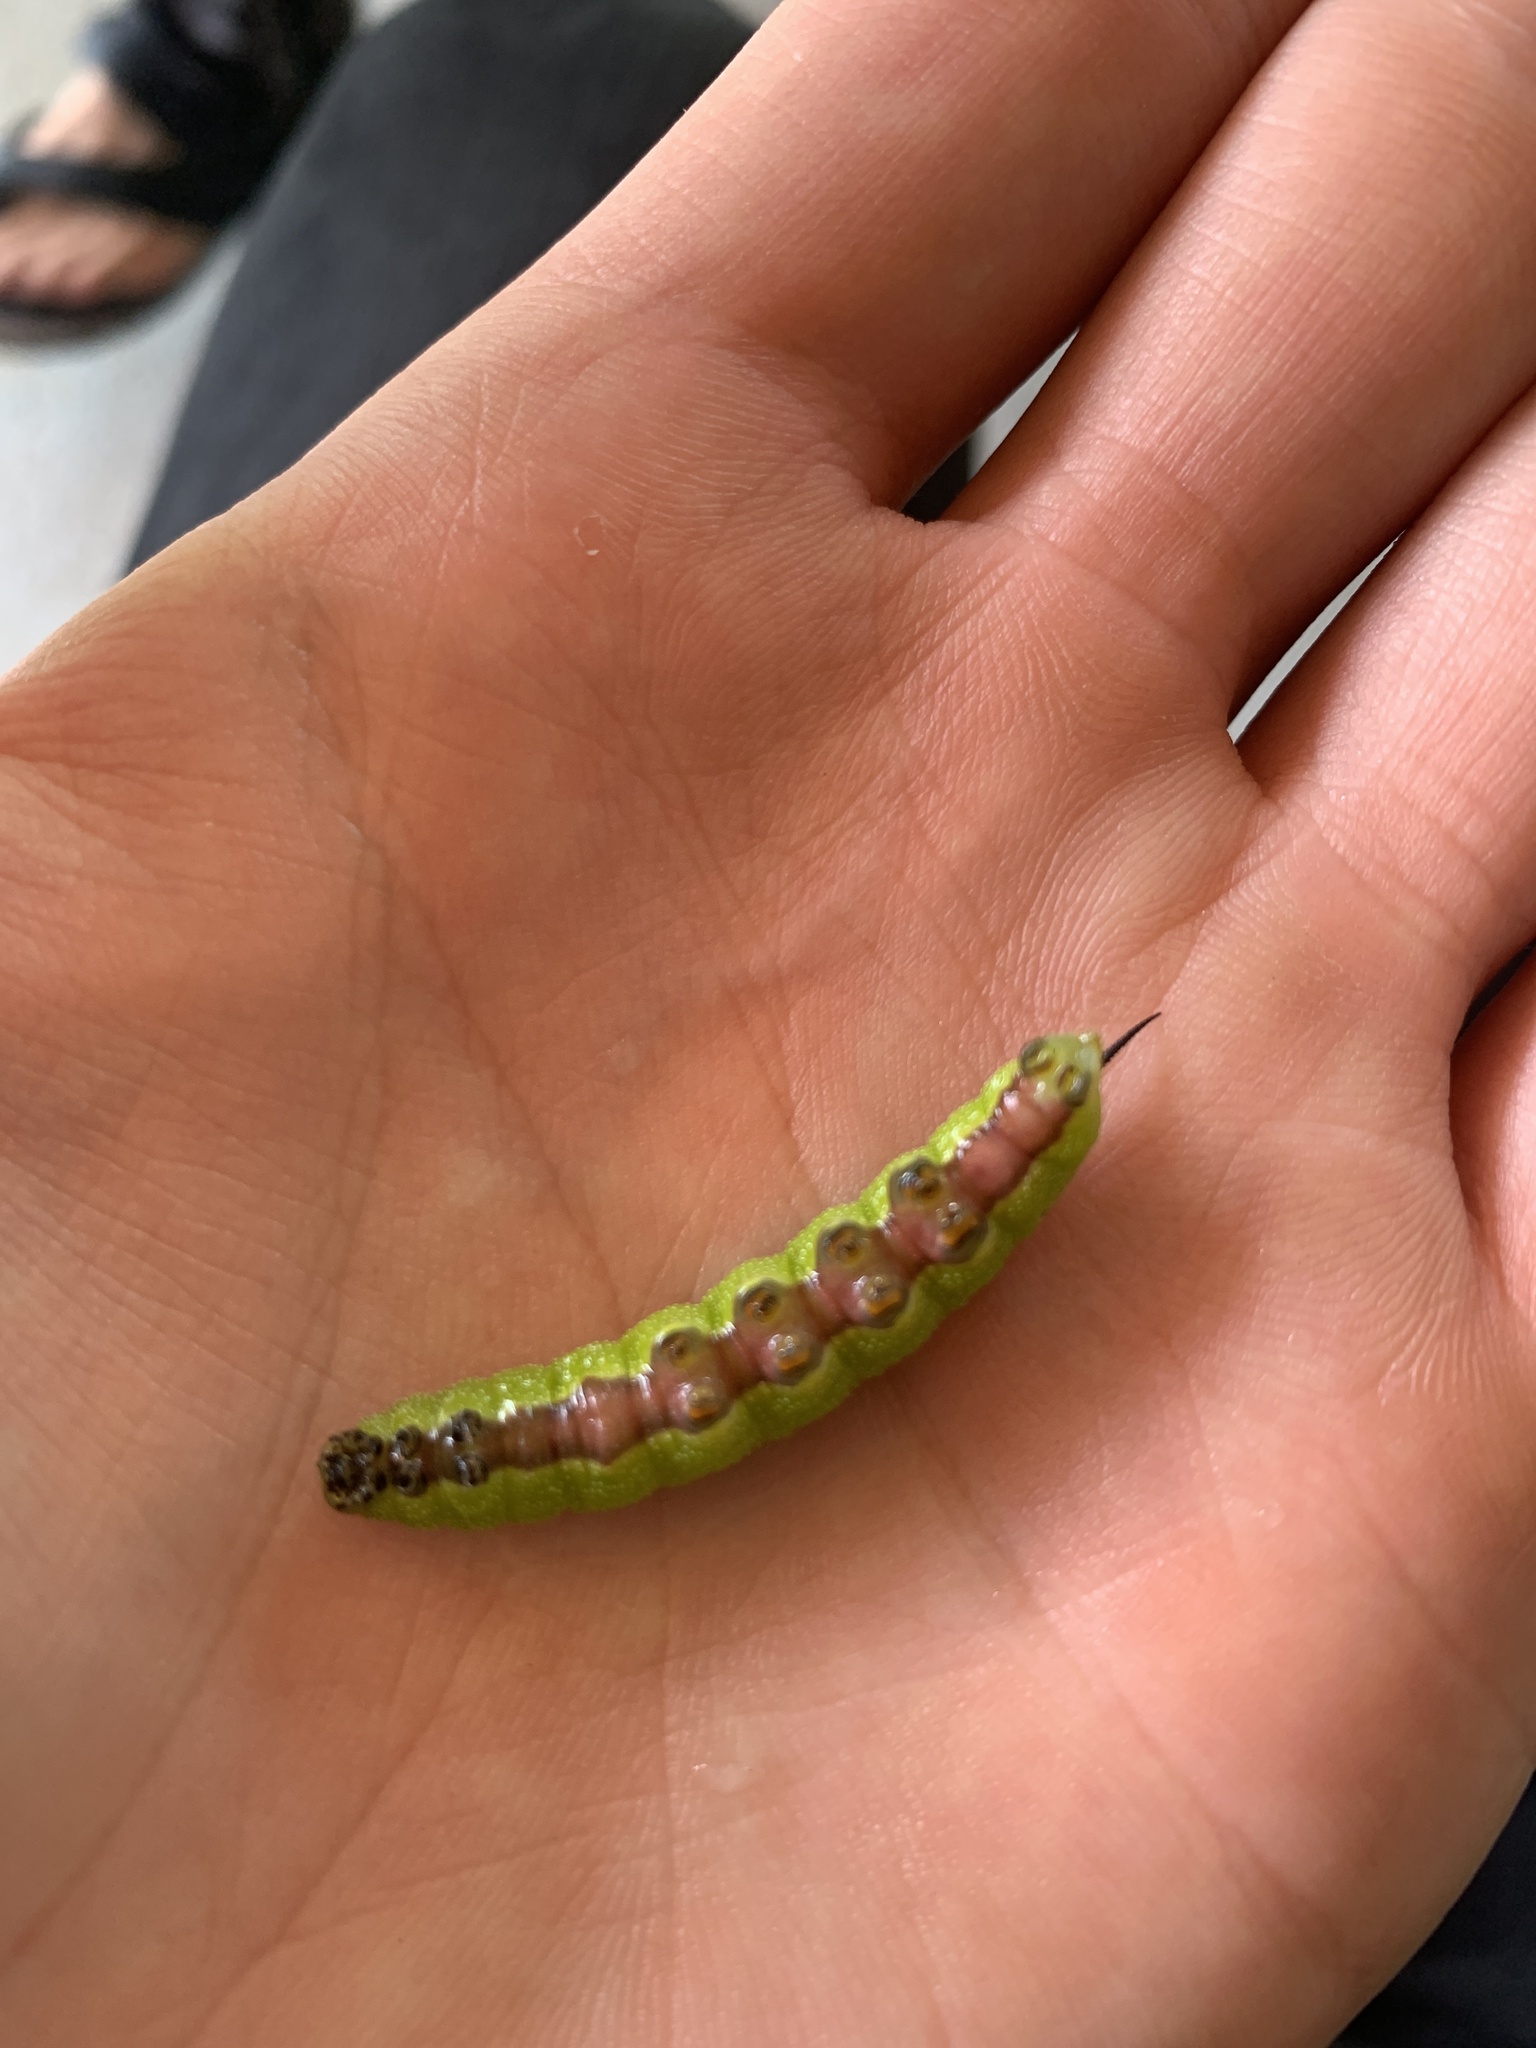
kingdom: Animalia
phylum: Arthropoda
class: Insecta
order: Lepidoptera
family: Sphingidae
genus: Hemaris
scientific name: Hemaris diffinis
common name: Bumblebee moth
